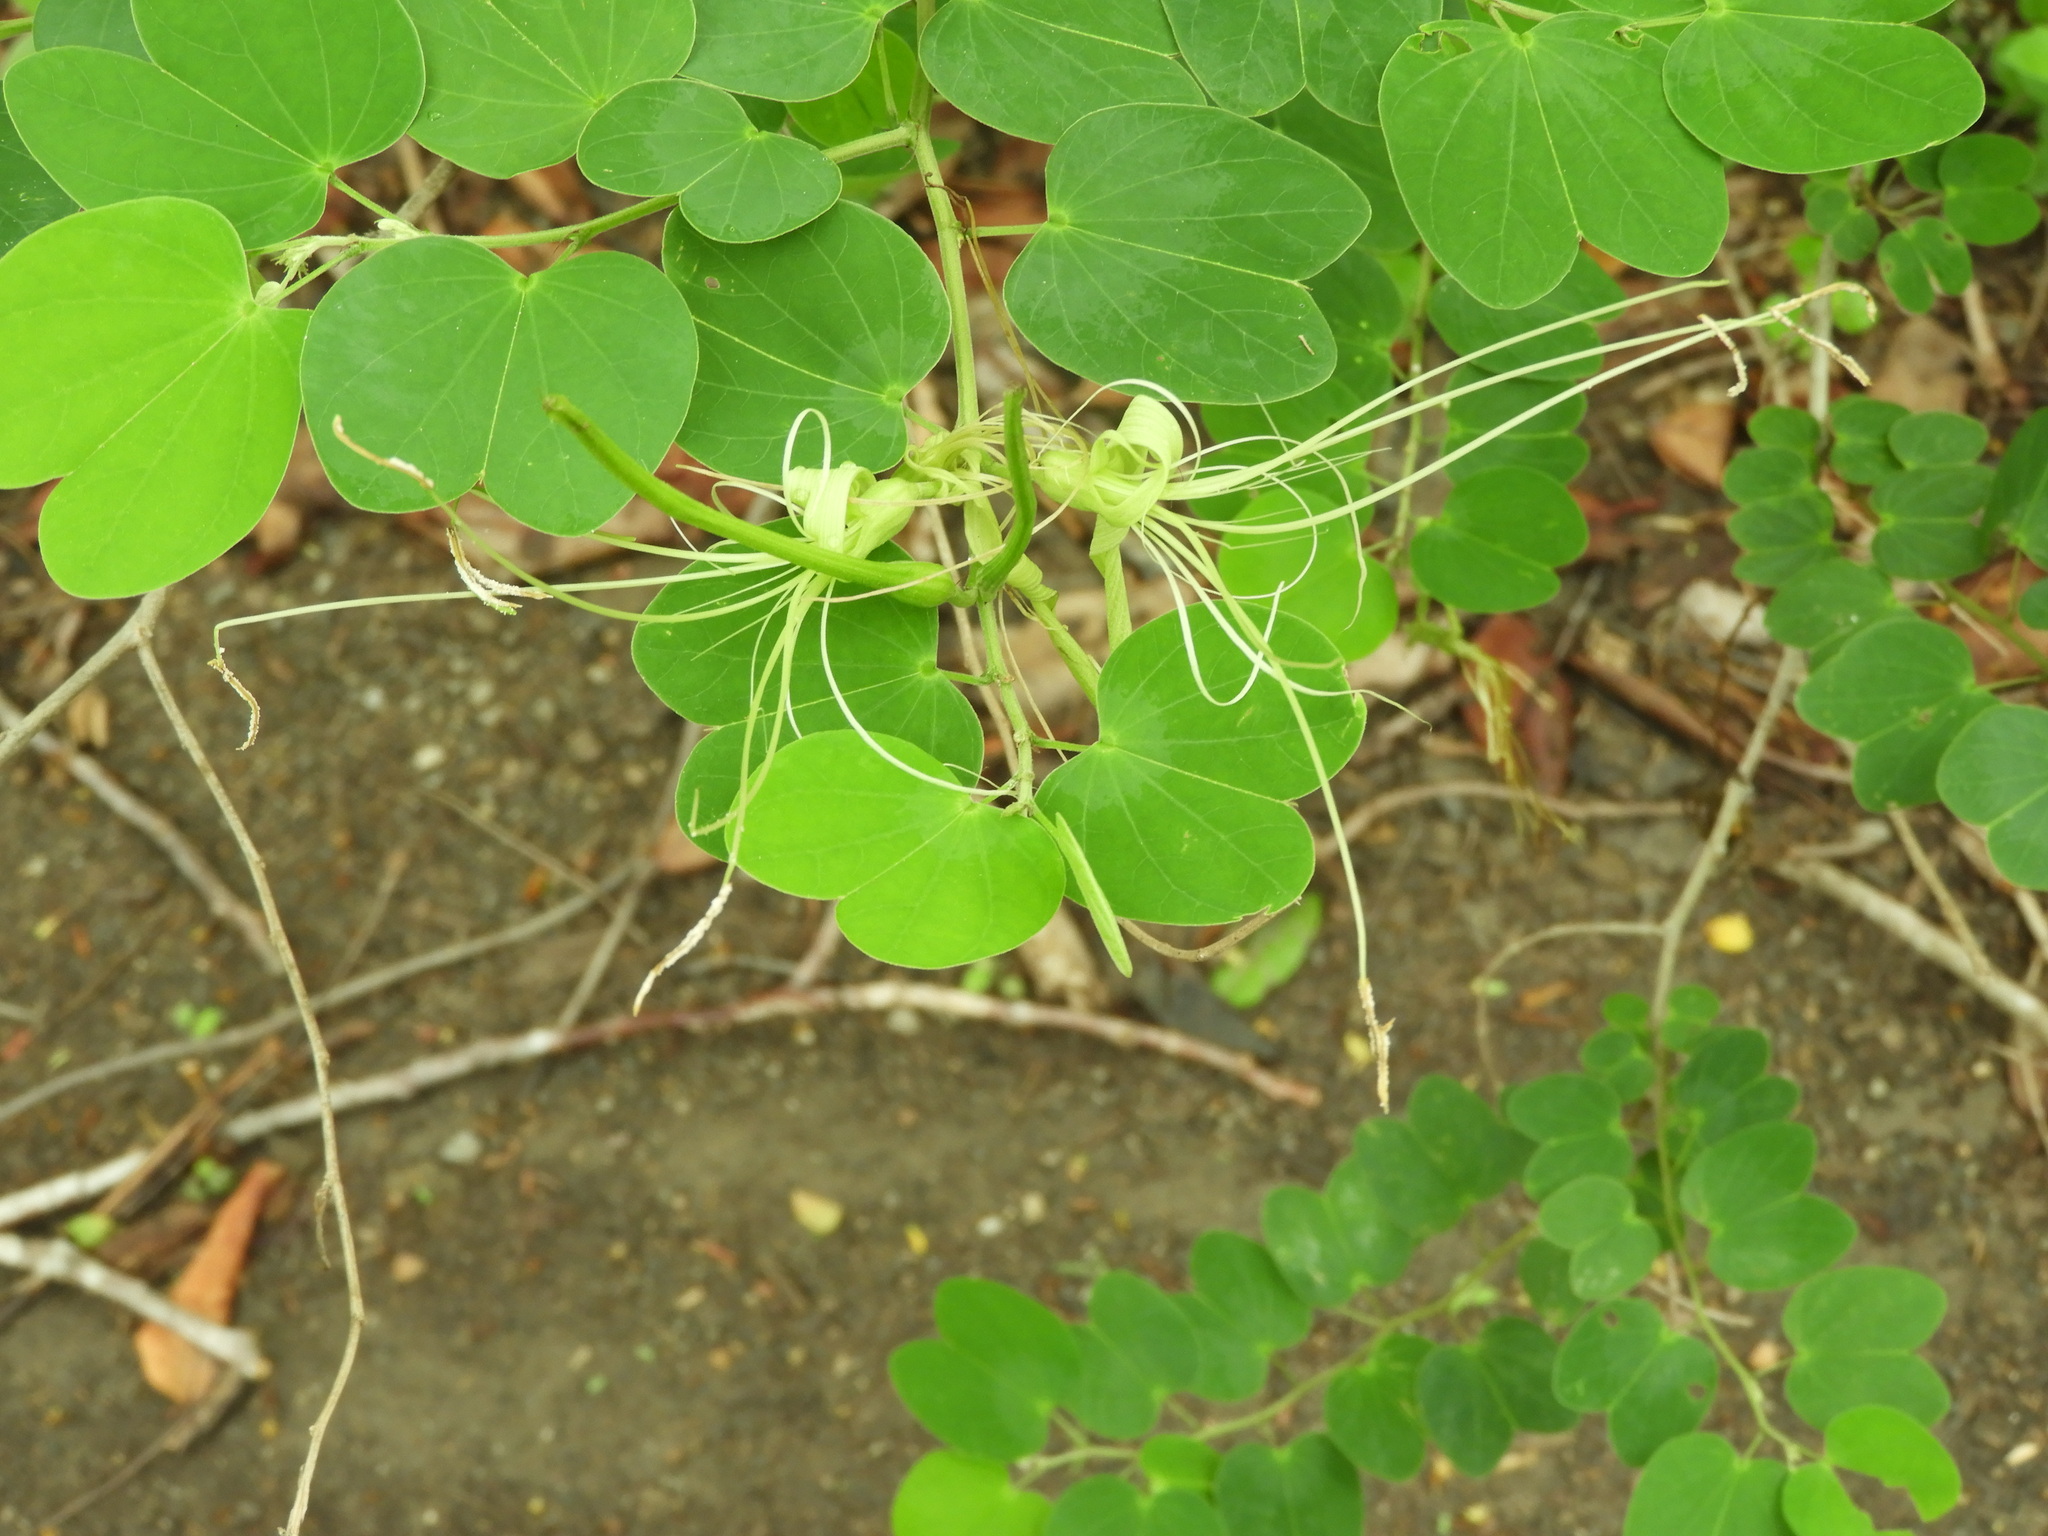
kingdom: Plantae
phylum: Tracheophyta
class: Magnoliopsida
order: Fabales
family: Fabaceae
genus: Bauhinia
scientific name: Bauhinia pauletia
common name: Railway-fence bauhinia
